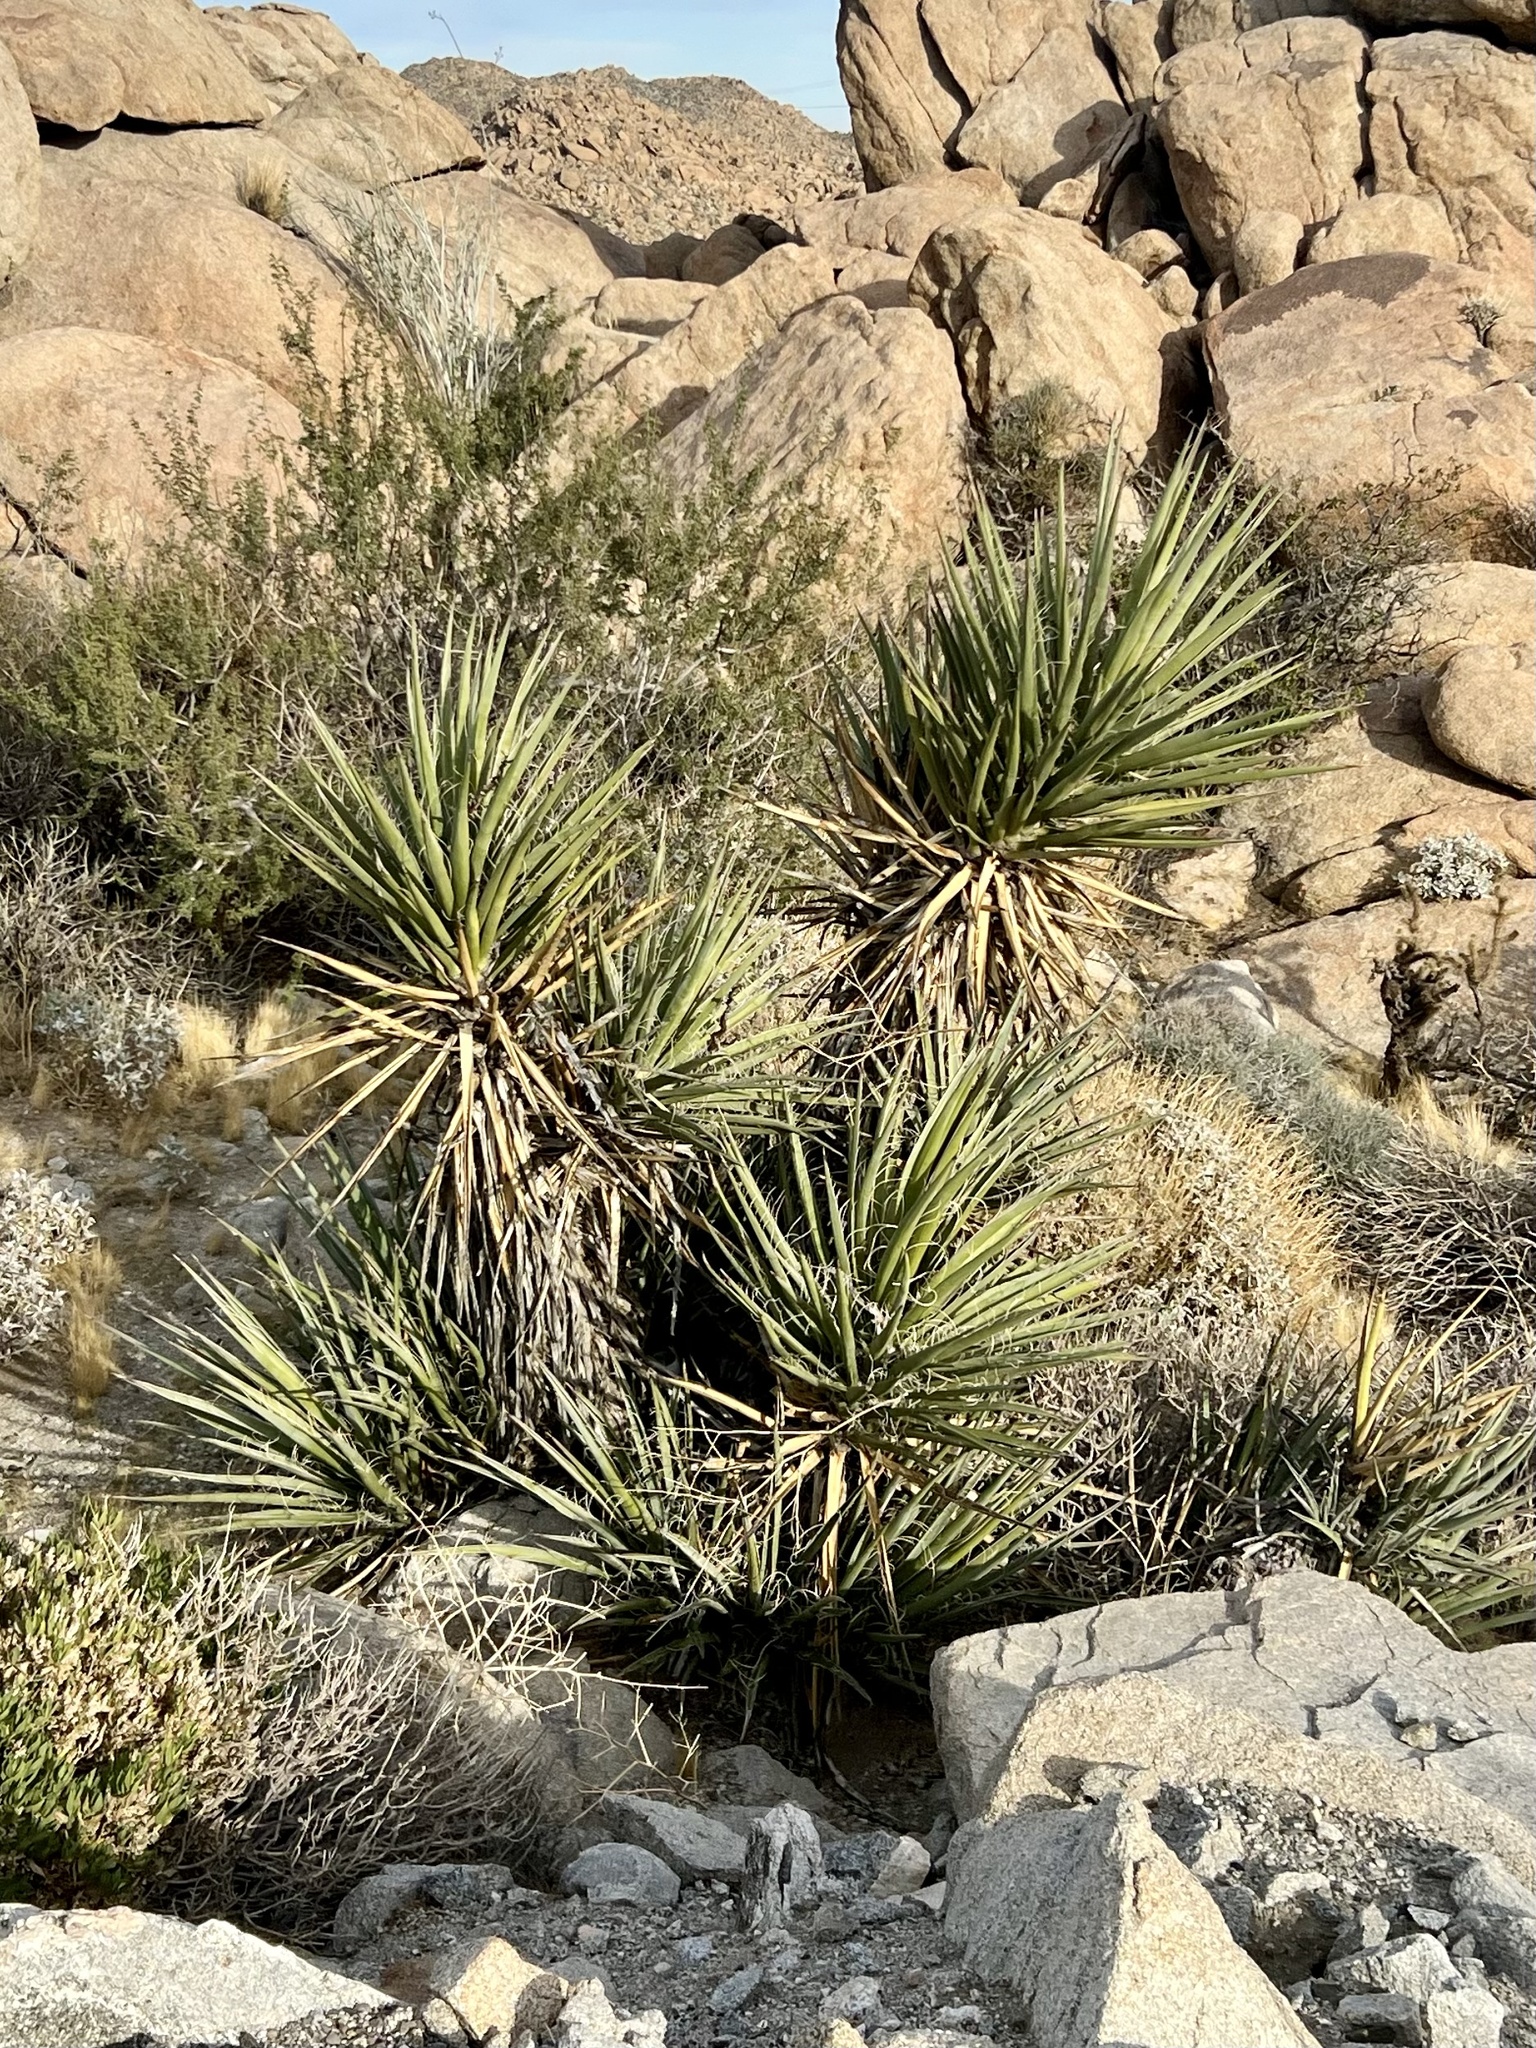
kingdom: Plantae
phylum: Tracheophyta
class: Liliopsida
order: Asparagales
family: Asparagaceae
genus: Yucca
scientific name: Yucca schidigera
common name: Mojave yucca
